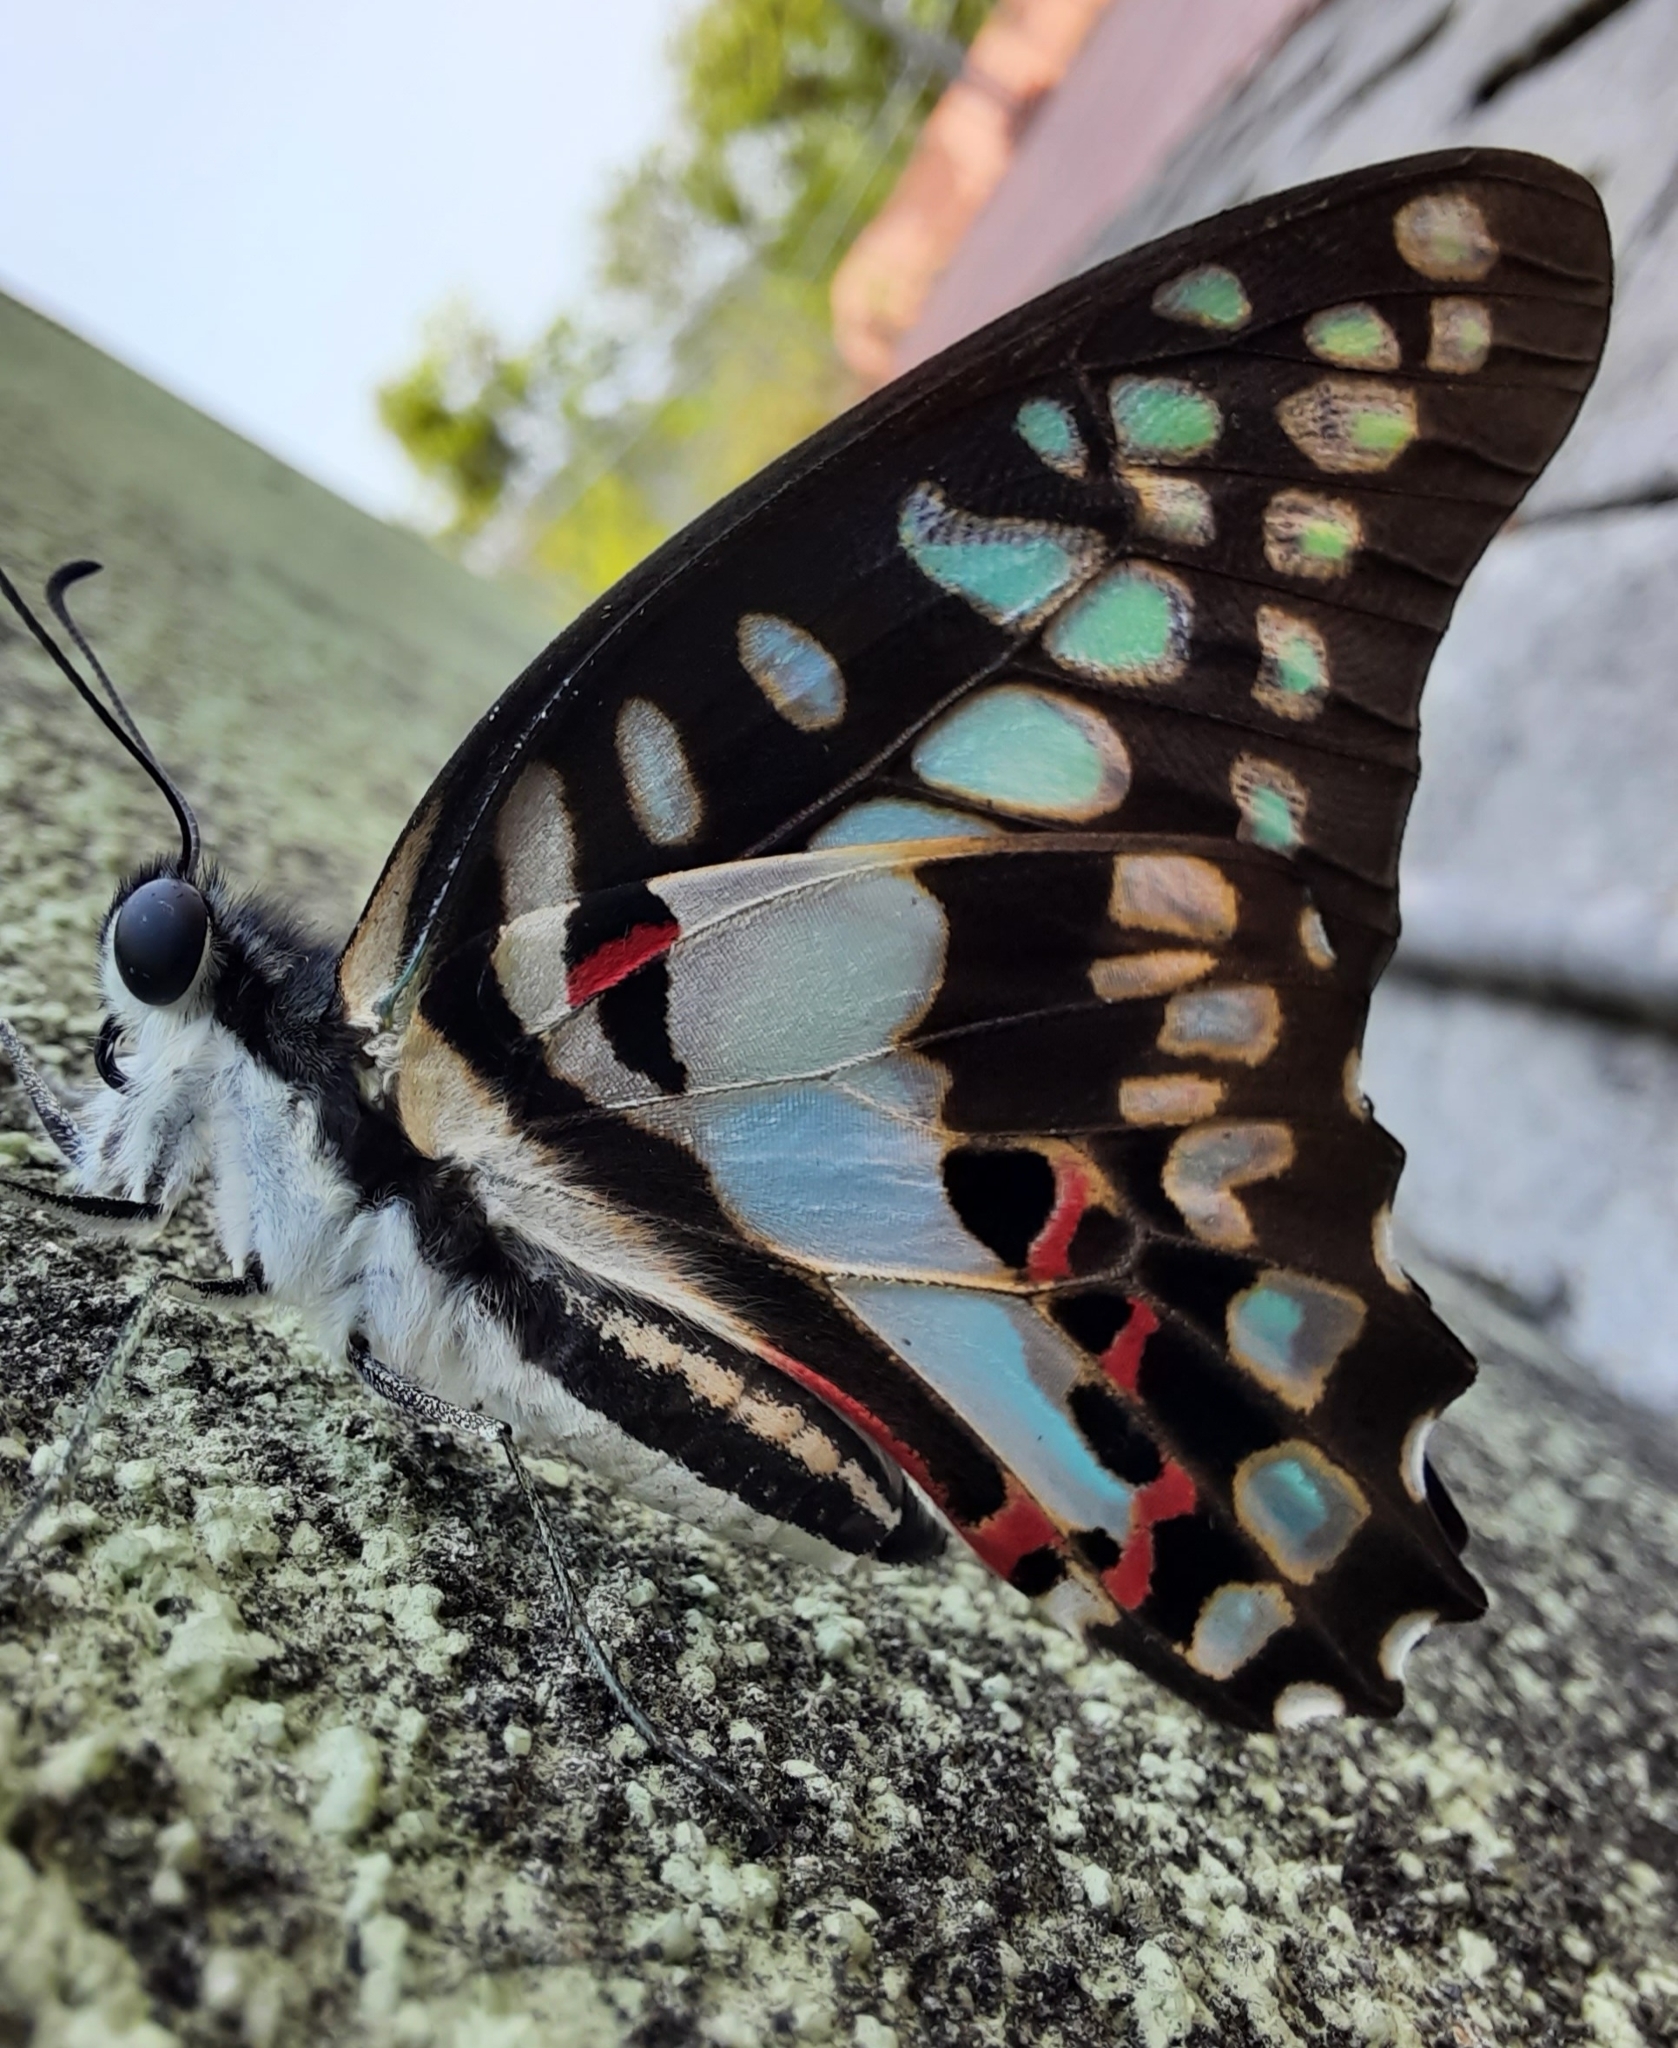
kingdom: Animalia
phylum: Arthropoda
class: Insecta
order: Lepidoptera
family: Papilionidae
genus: Graphium
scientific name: Graphium doson
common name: Common jay
